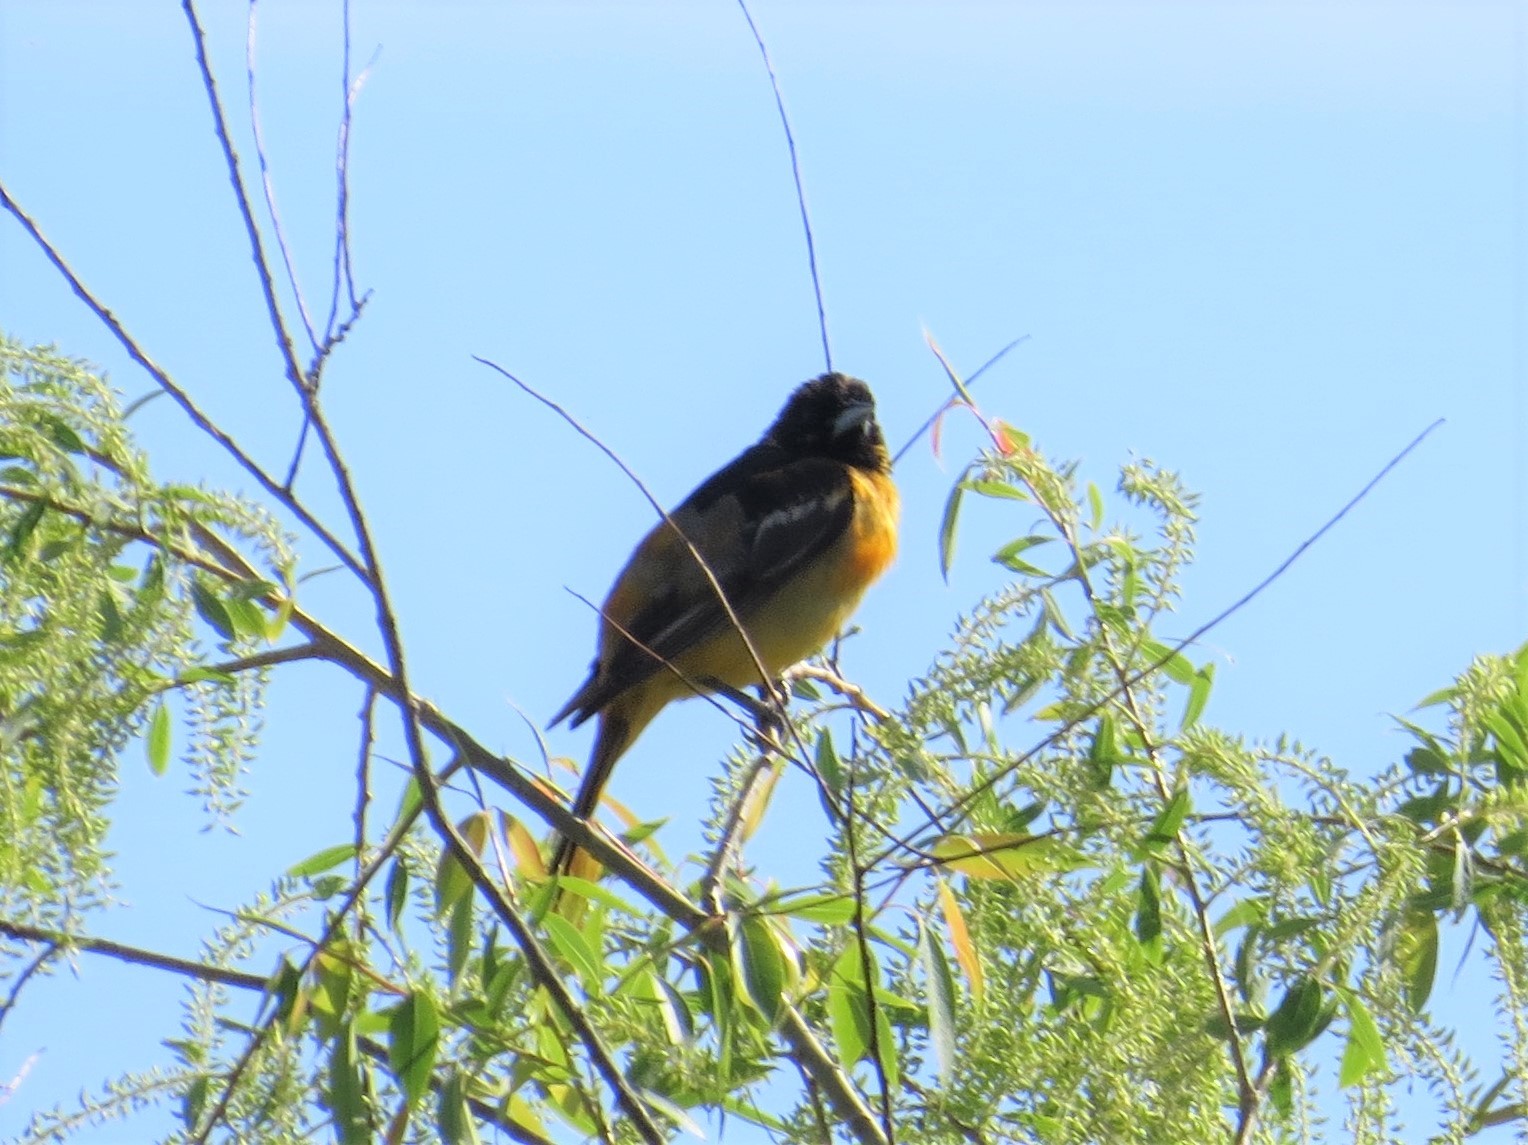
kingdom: Animalia
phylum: Chordata
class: Aves
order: Passeriformes
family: Icteridae
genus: Icterus
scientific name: Icterus galbula
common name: Baltimore oriole
